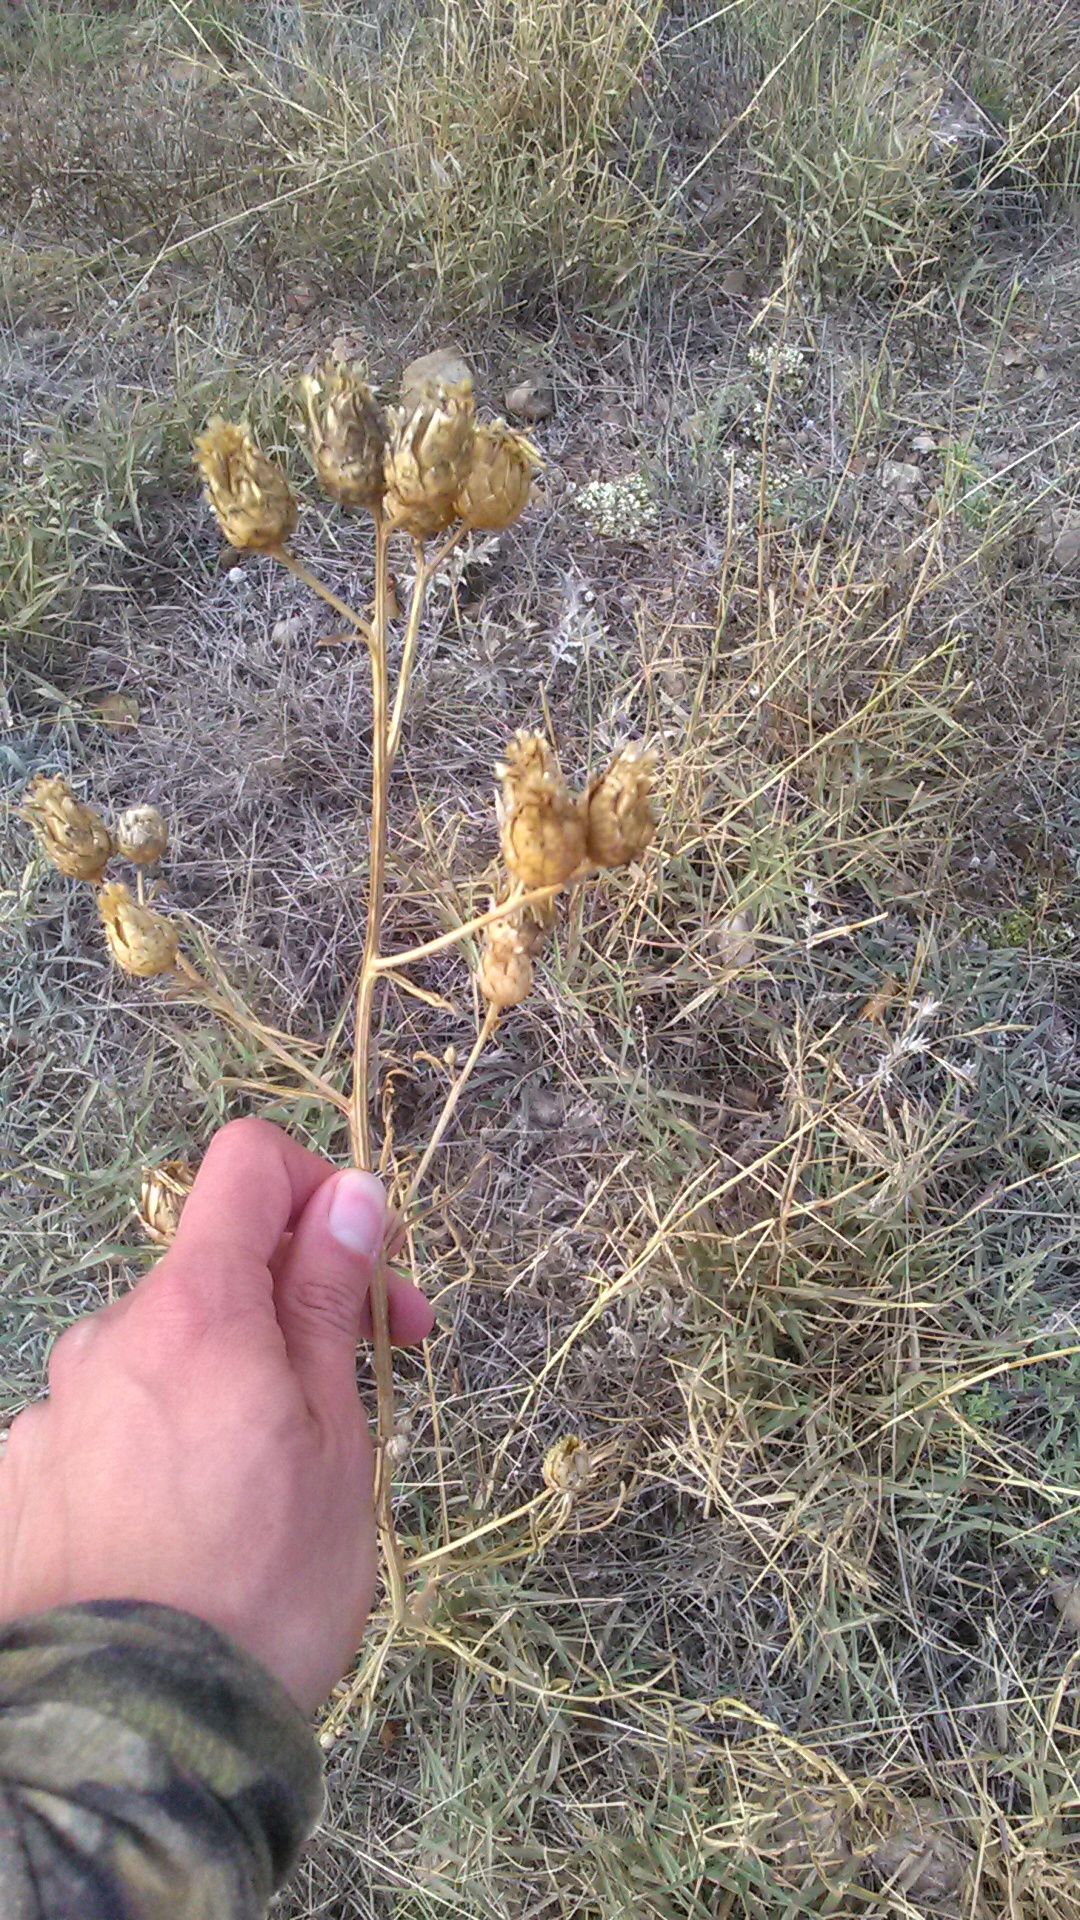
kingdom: Plantae
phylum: Tracheophyta
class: Magnoliopsida
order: Asterales
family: Asteraceae
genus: Centaurea
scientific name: Centaurea salonitana
